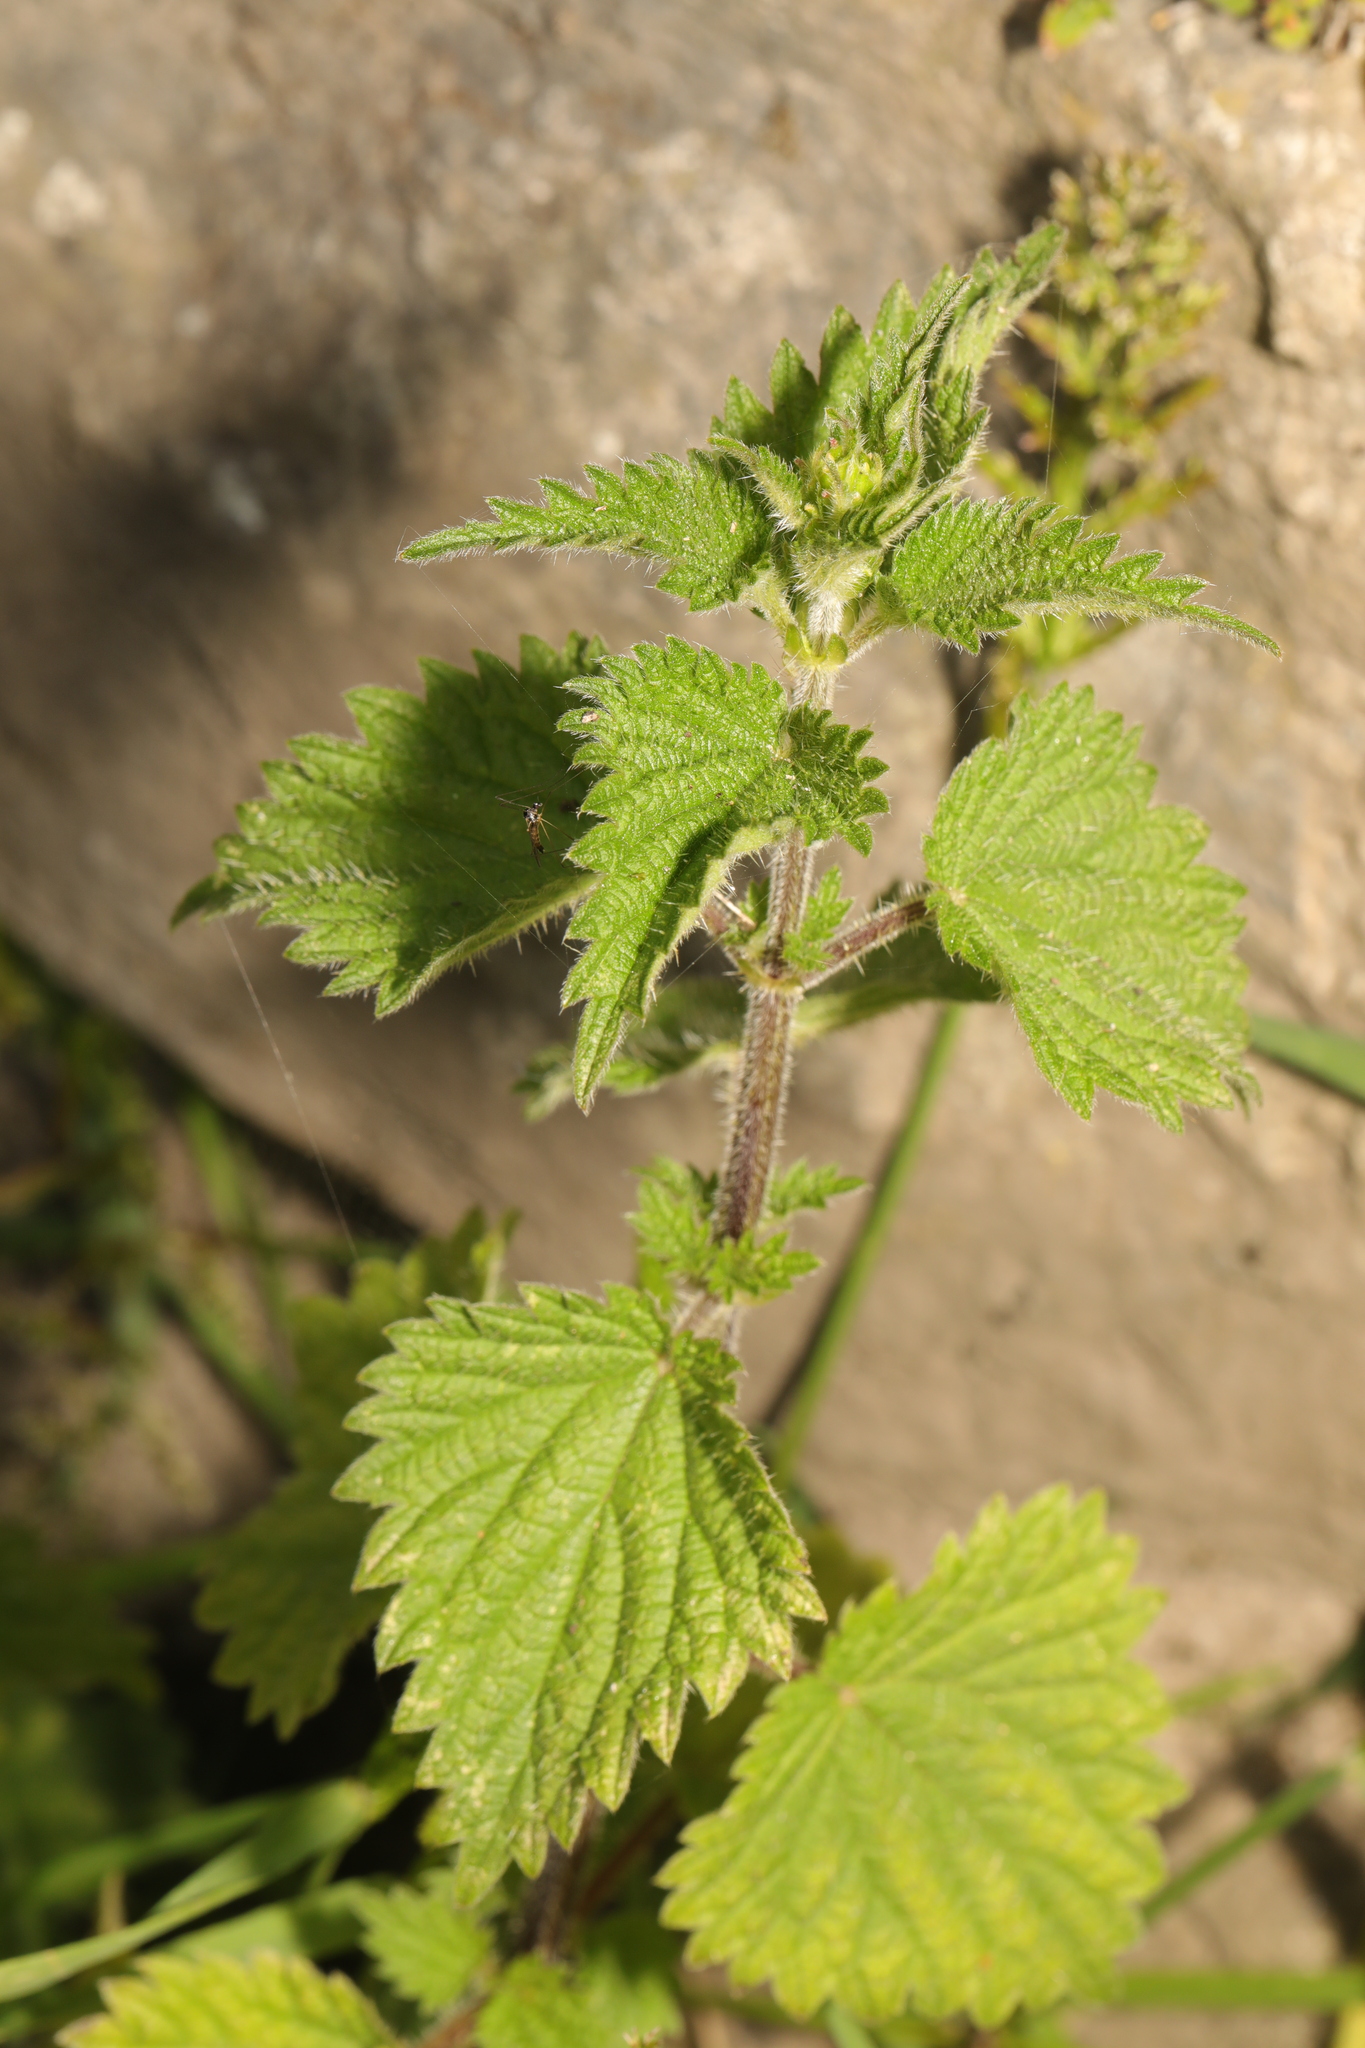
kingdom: Plantae
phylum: Tracheophyta
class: Magnoliopsida
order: Rosales
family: Urticaceae
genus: Urtica
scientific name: Urtica dioica
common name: Common nettle
